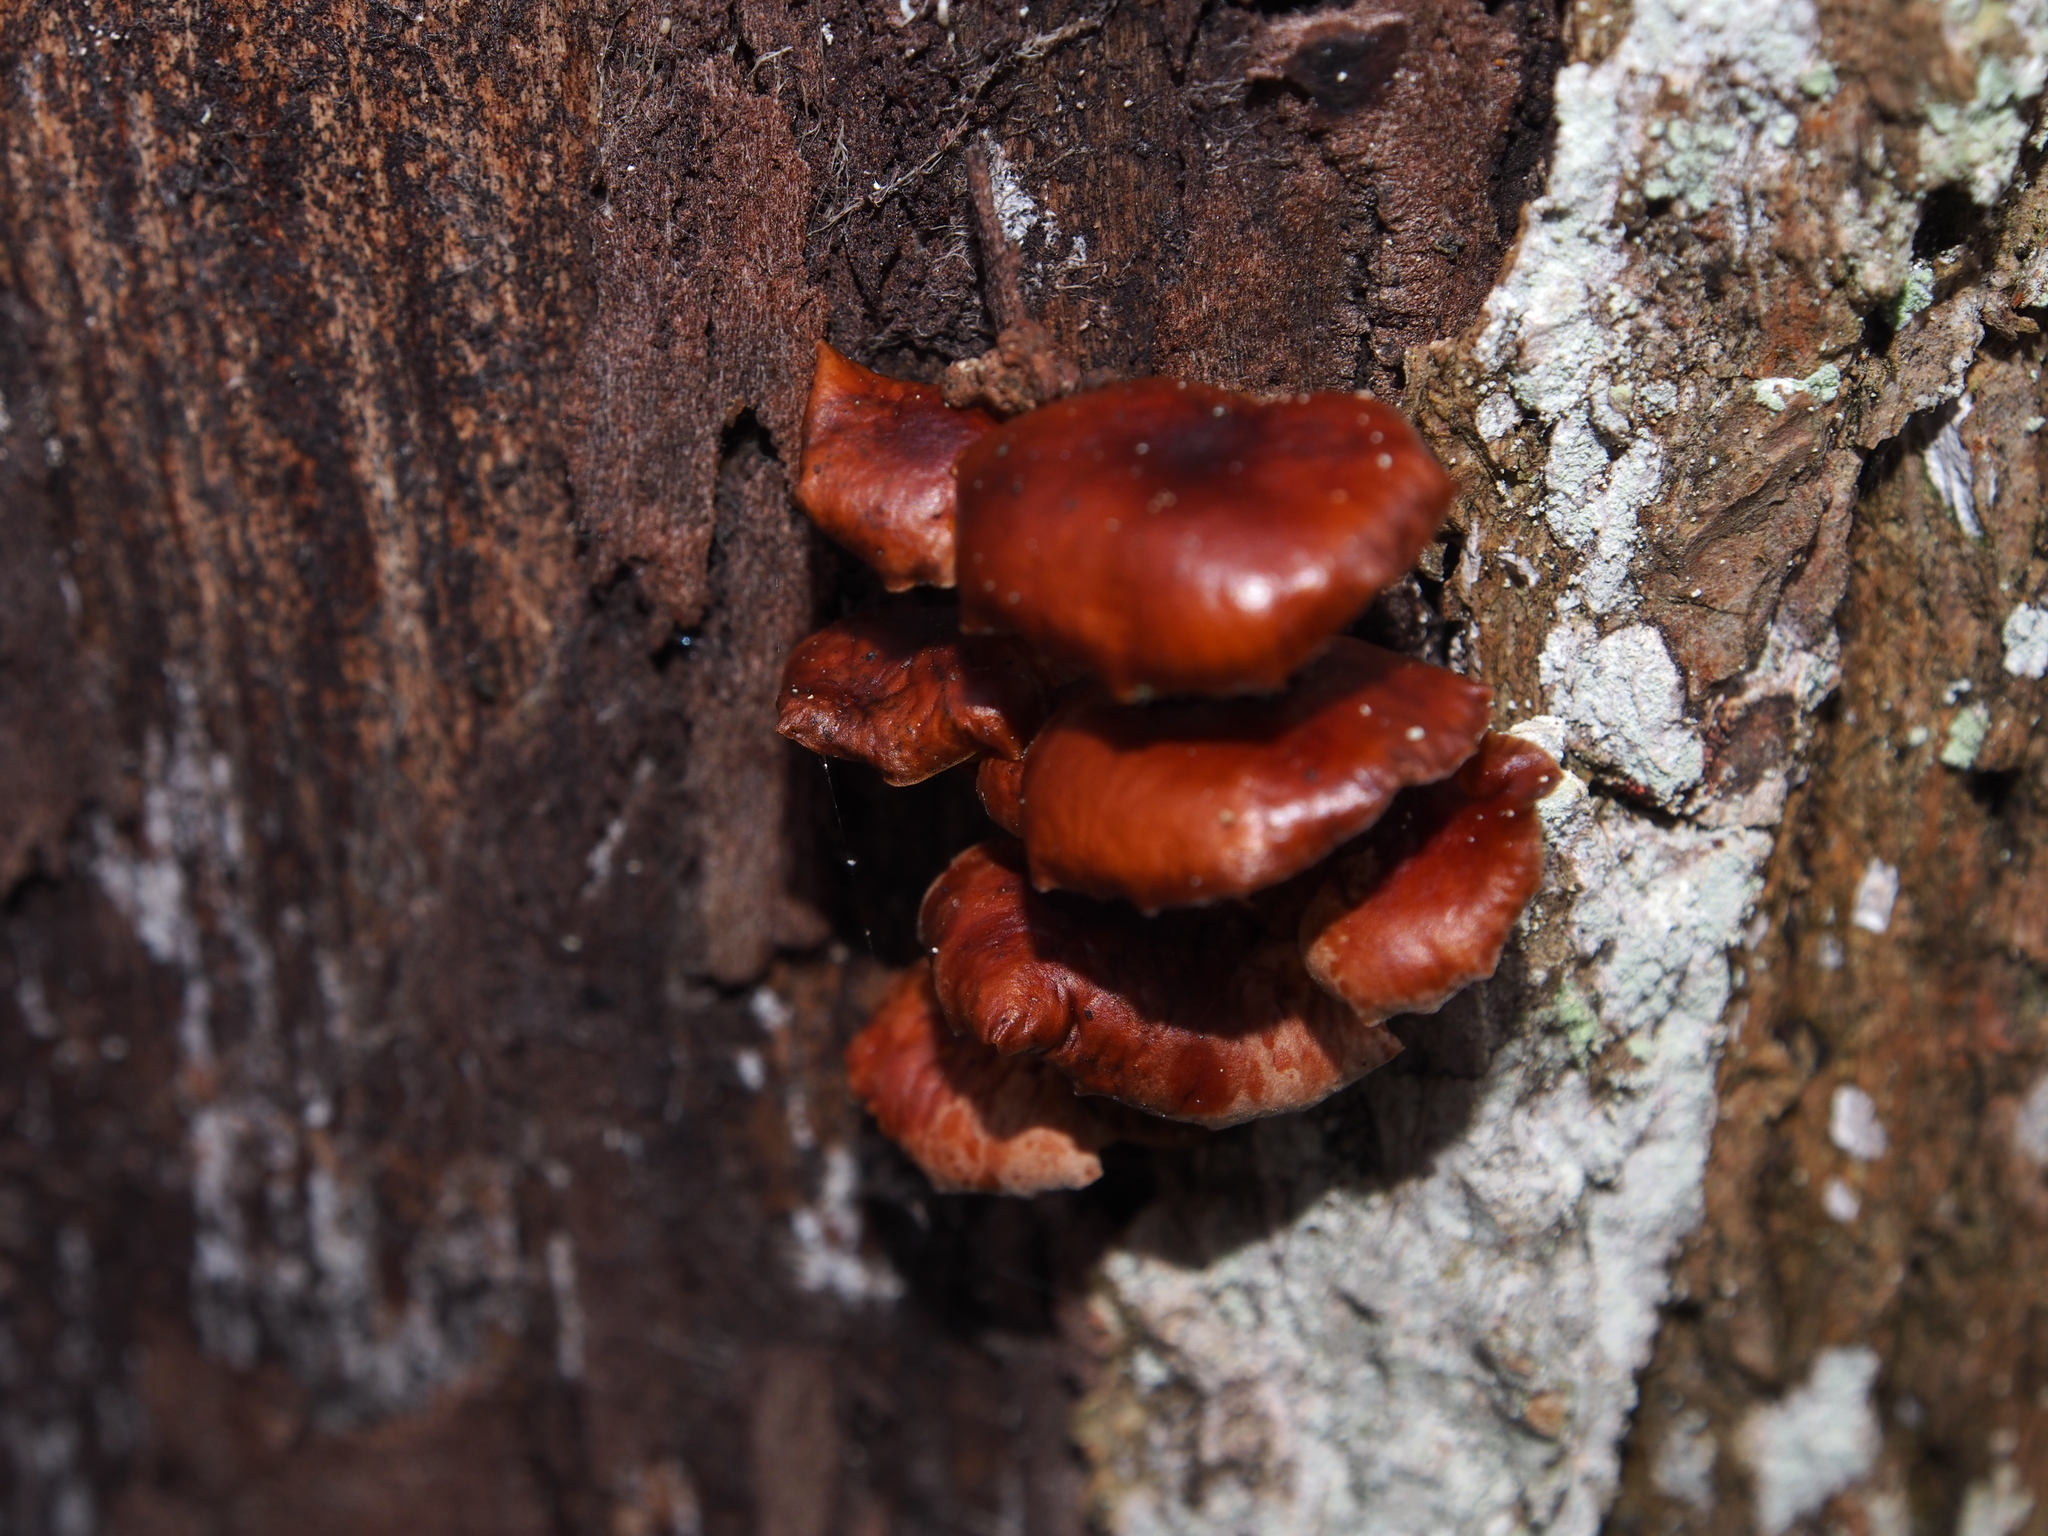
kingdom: Fungi
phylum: Basidiomycota
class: Agaricomycetes
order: Agaricales
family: Physalacriaceae
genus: Flammulina
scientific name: Flammulina
